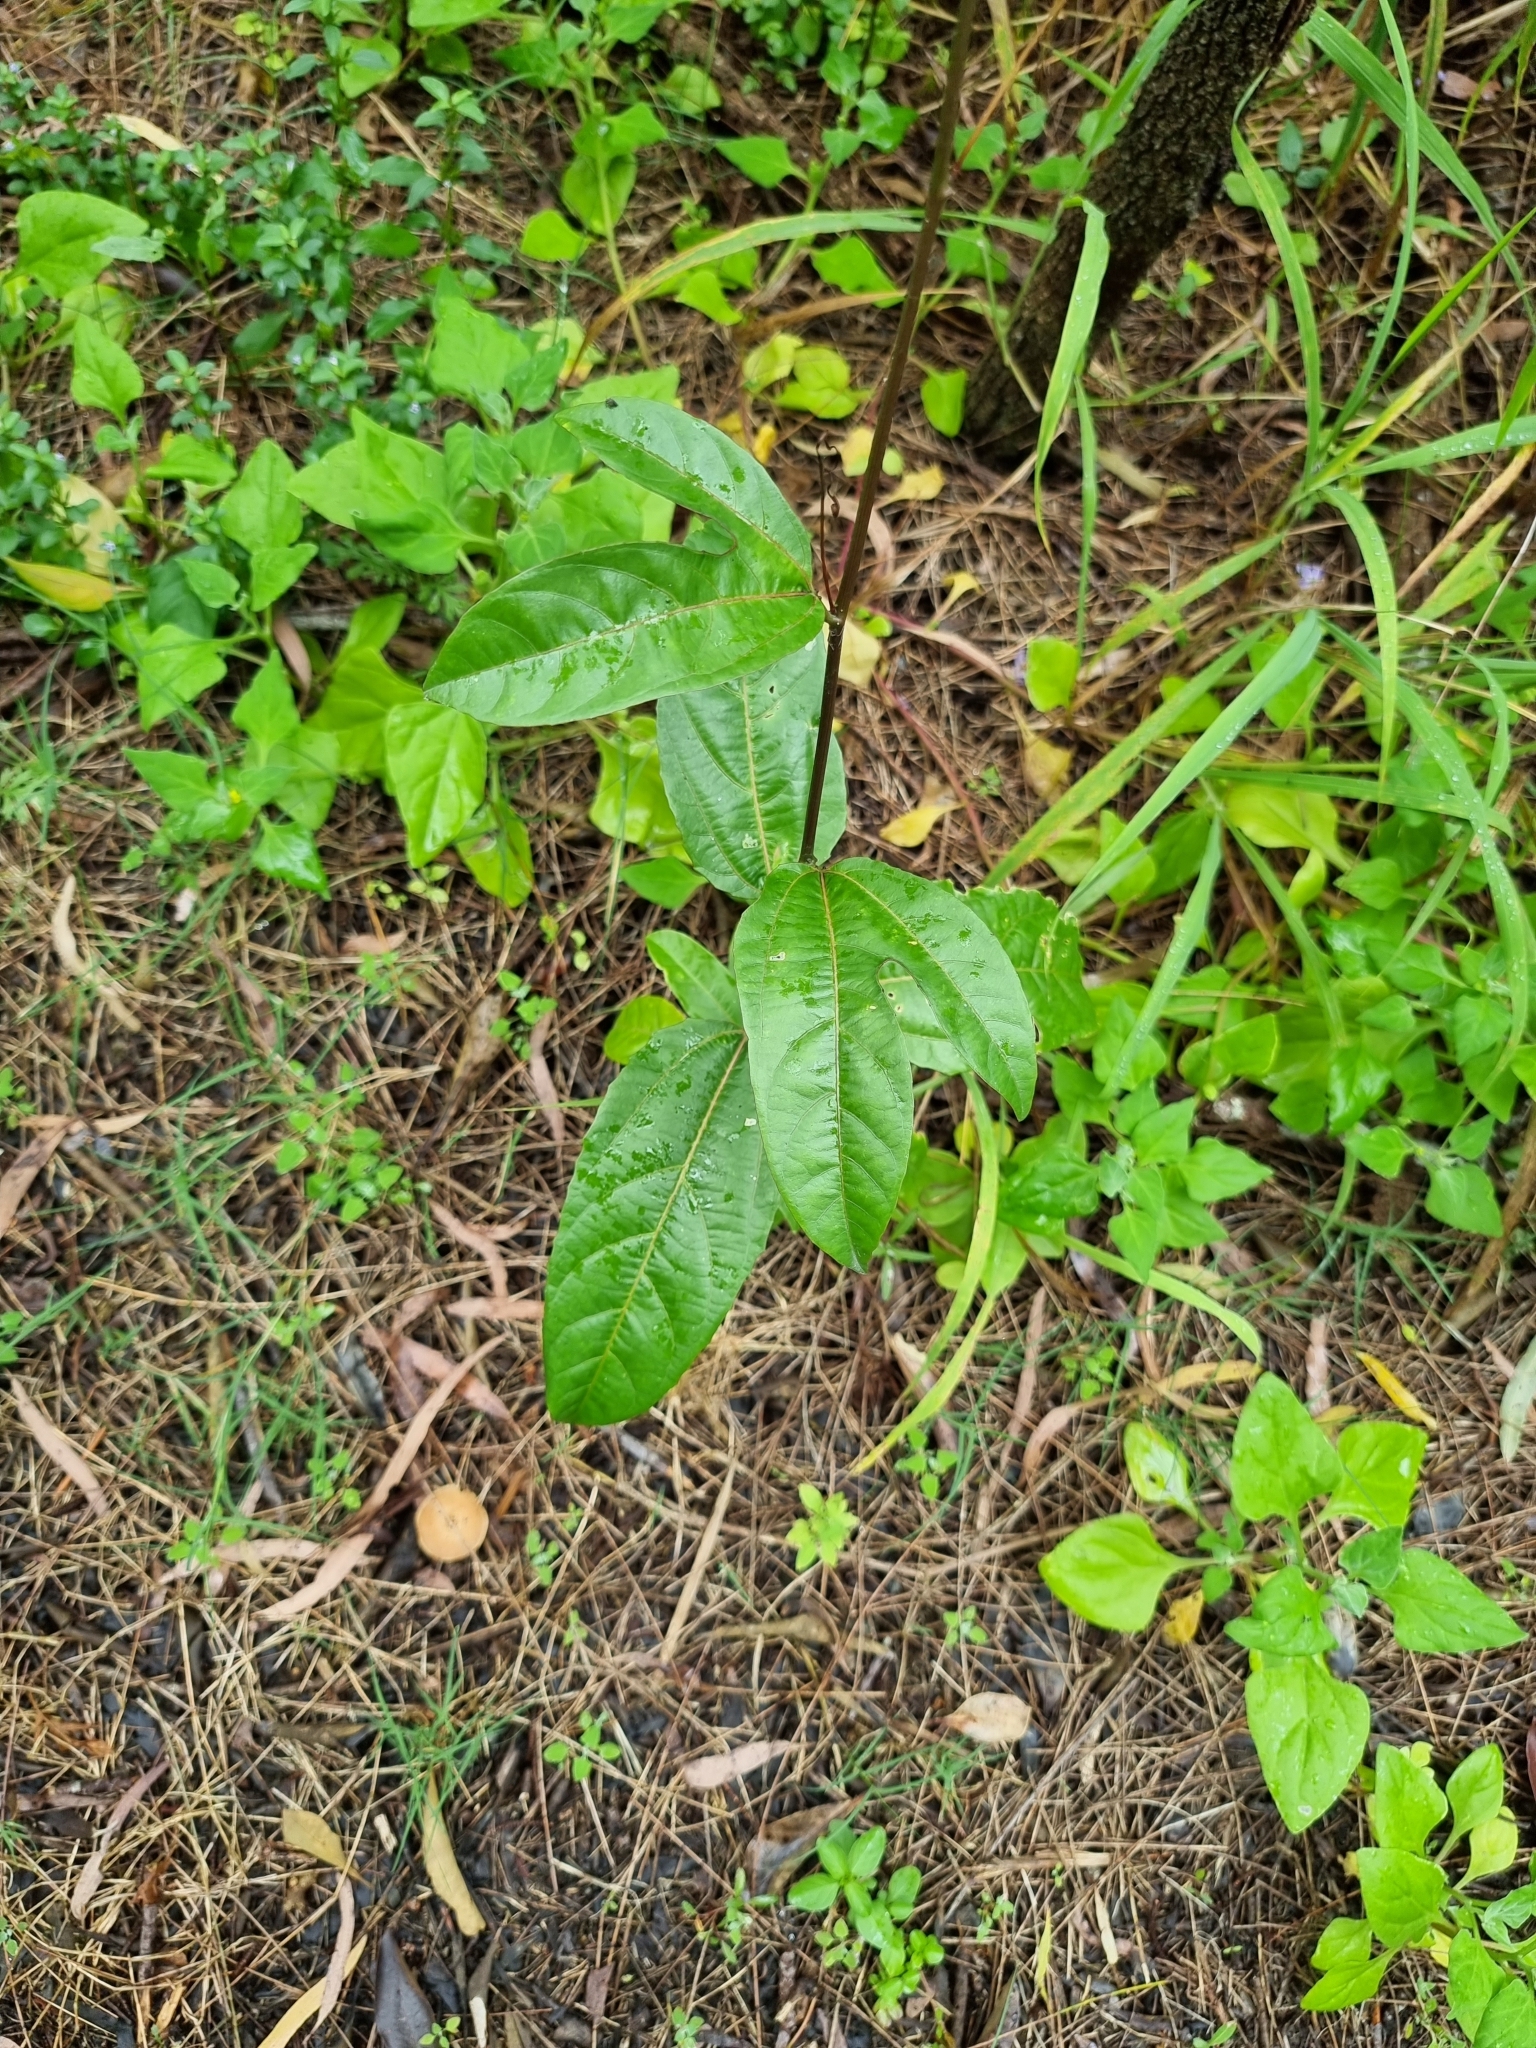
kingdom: Plantae
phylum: Tracheophyta
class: Magnoliopsida
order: Malpighiales
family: Passifloraceae
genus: Passiflora
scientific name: Passiflora edulis
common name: Purple granadilla
